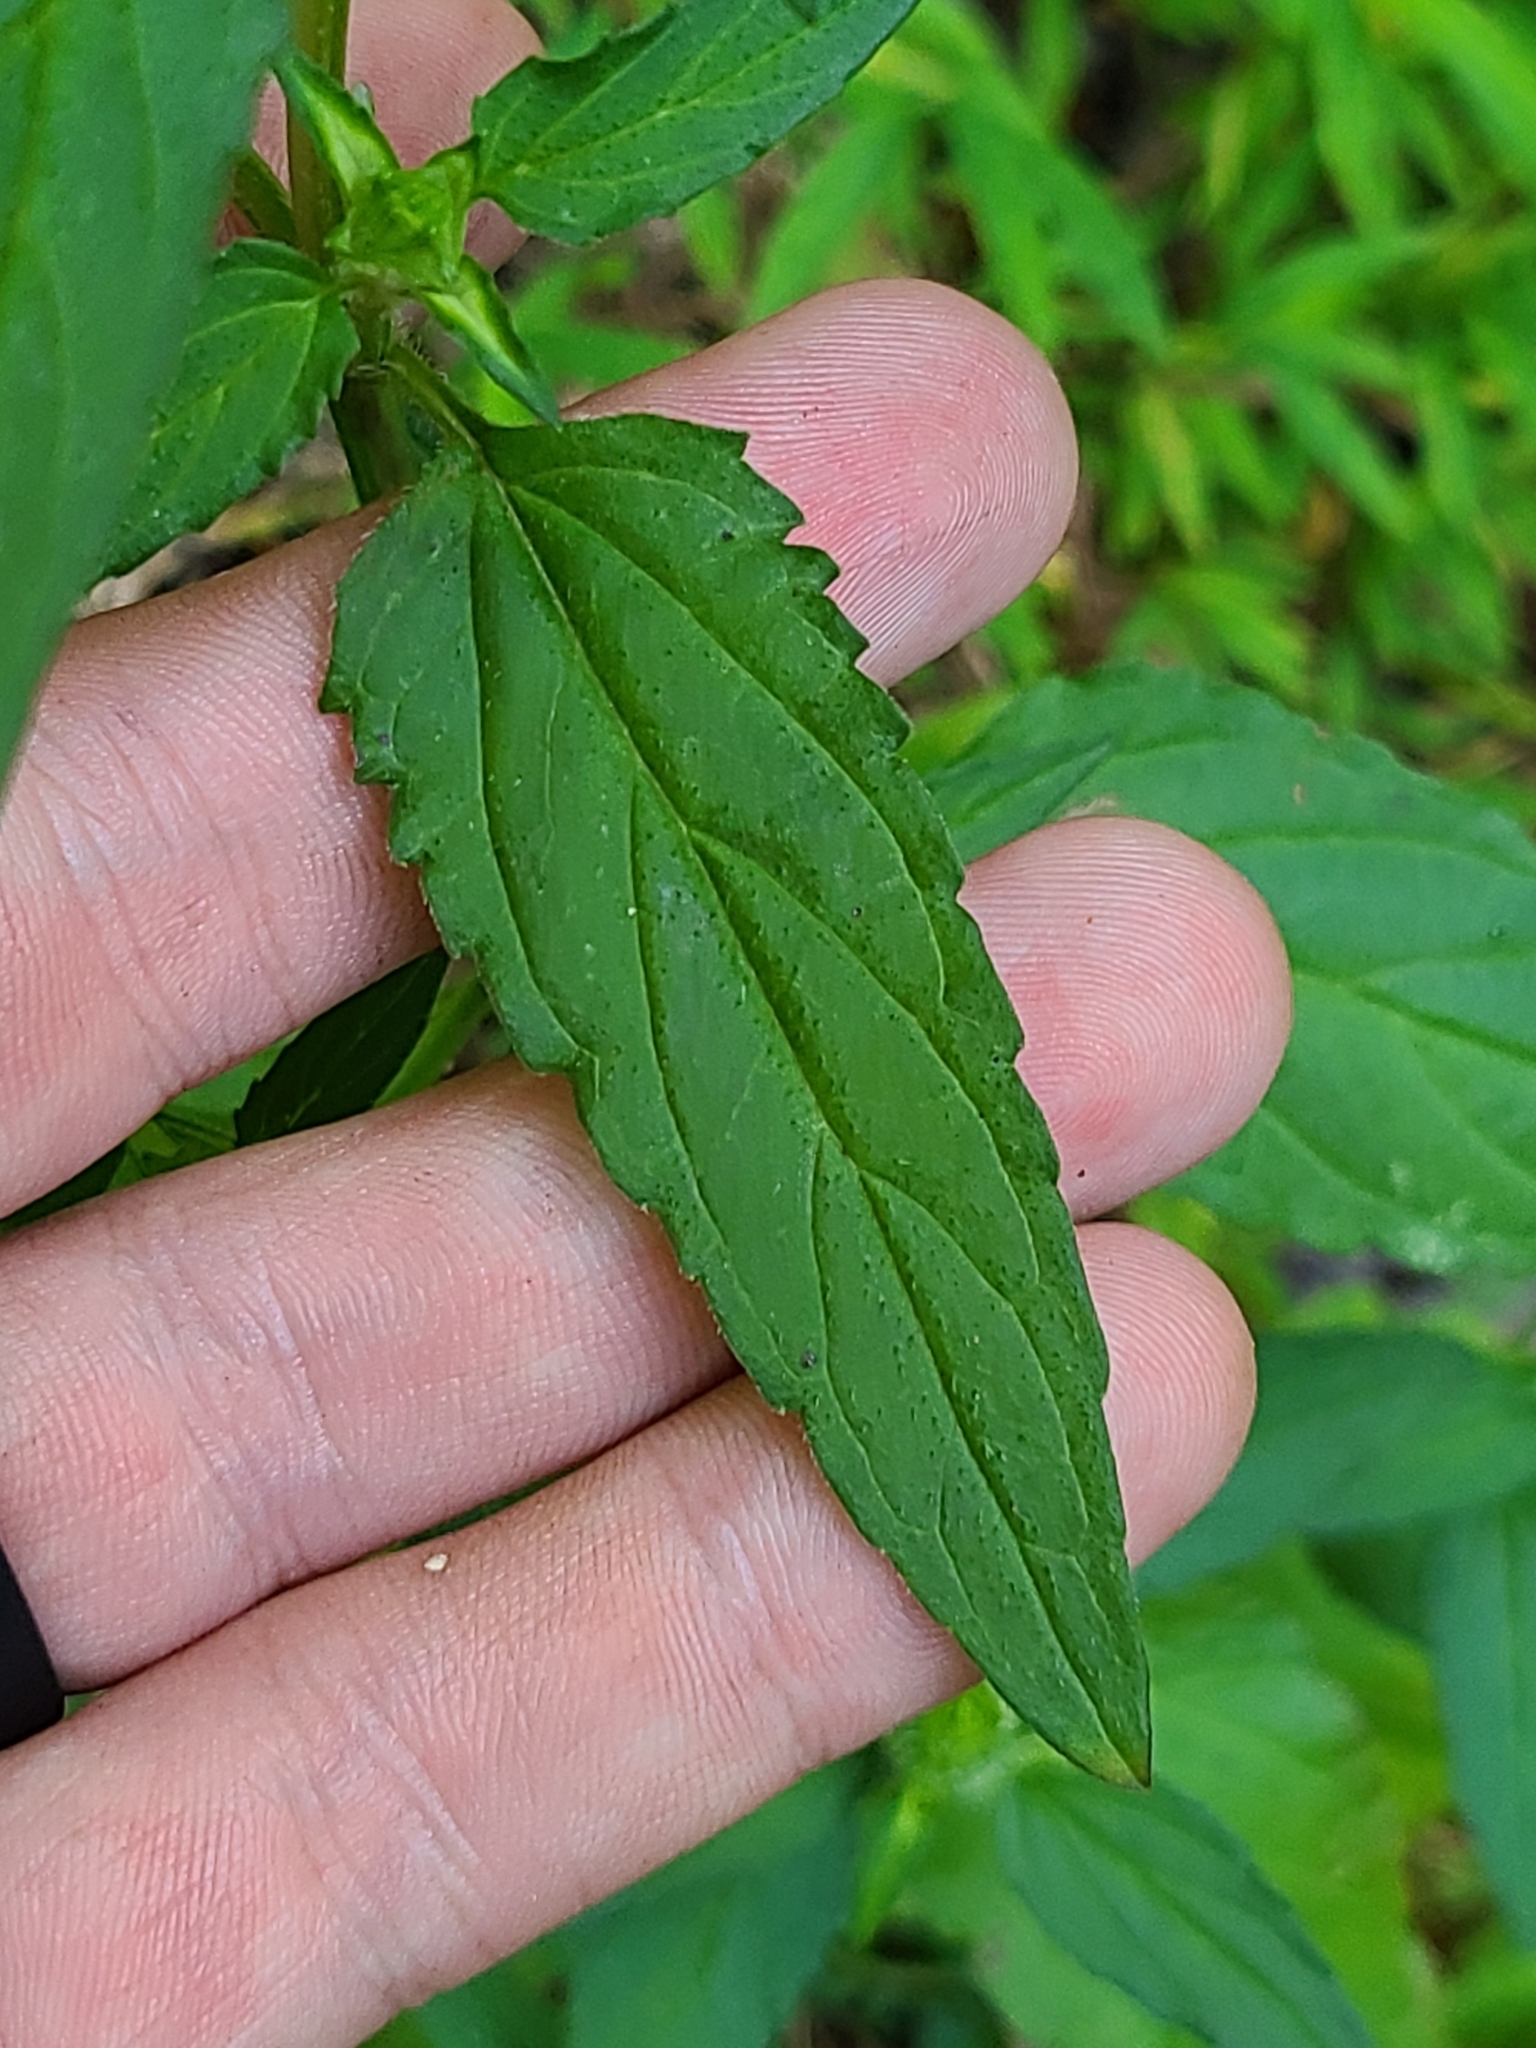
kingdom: Plantae
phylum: Tracheophyta
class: Magnoliopsida
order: Lamiales
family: Lamiaceae
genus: Prunella
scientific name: Prunella vulgaris
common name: Heal-all
